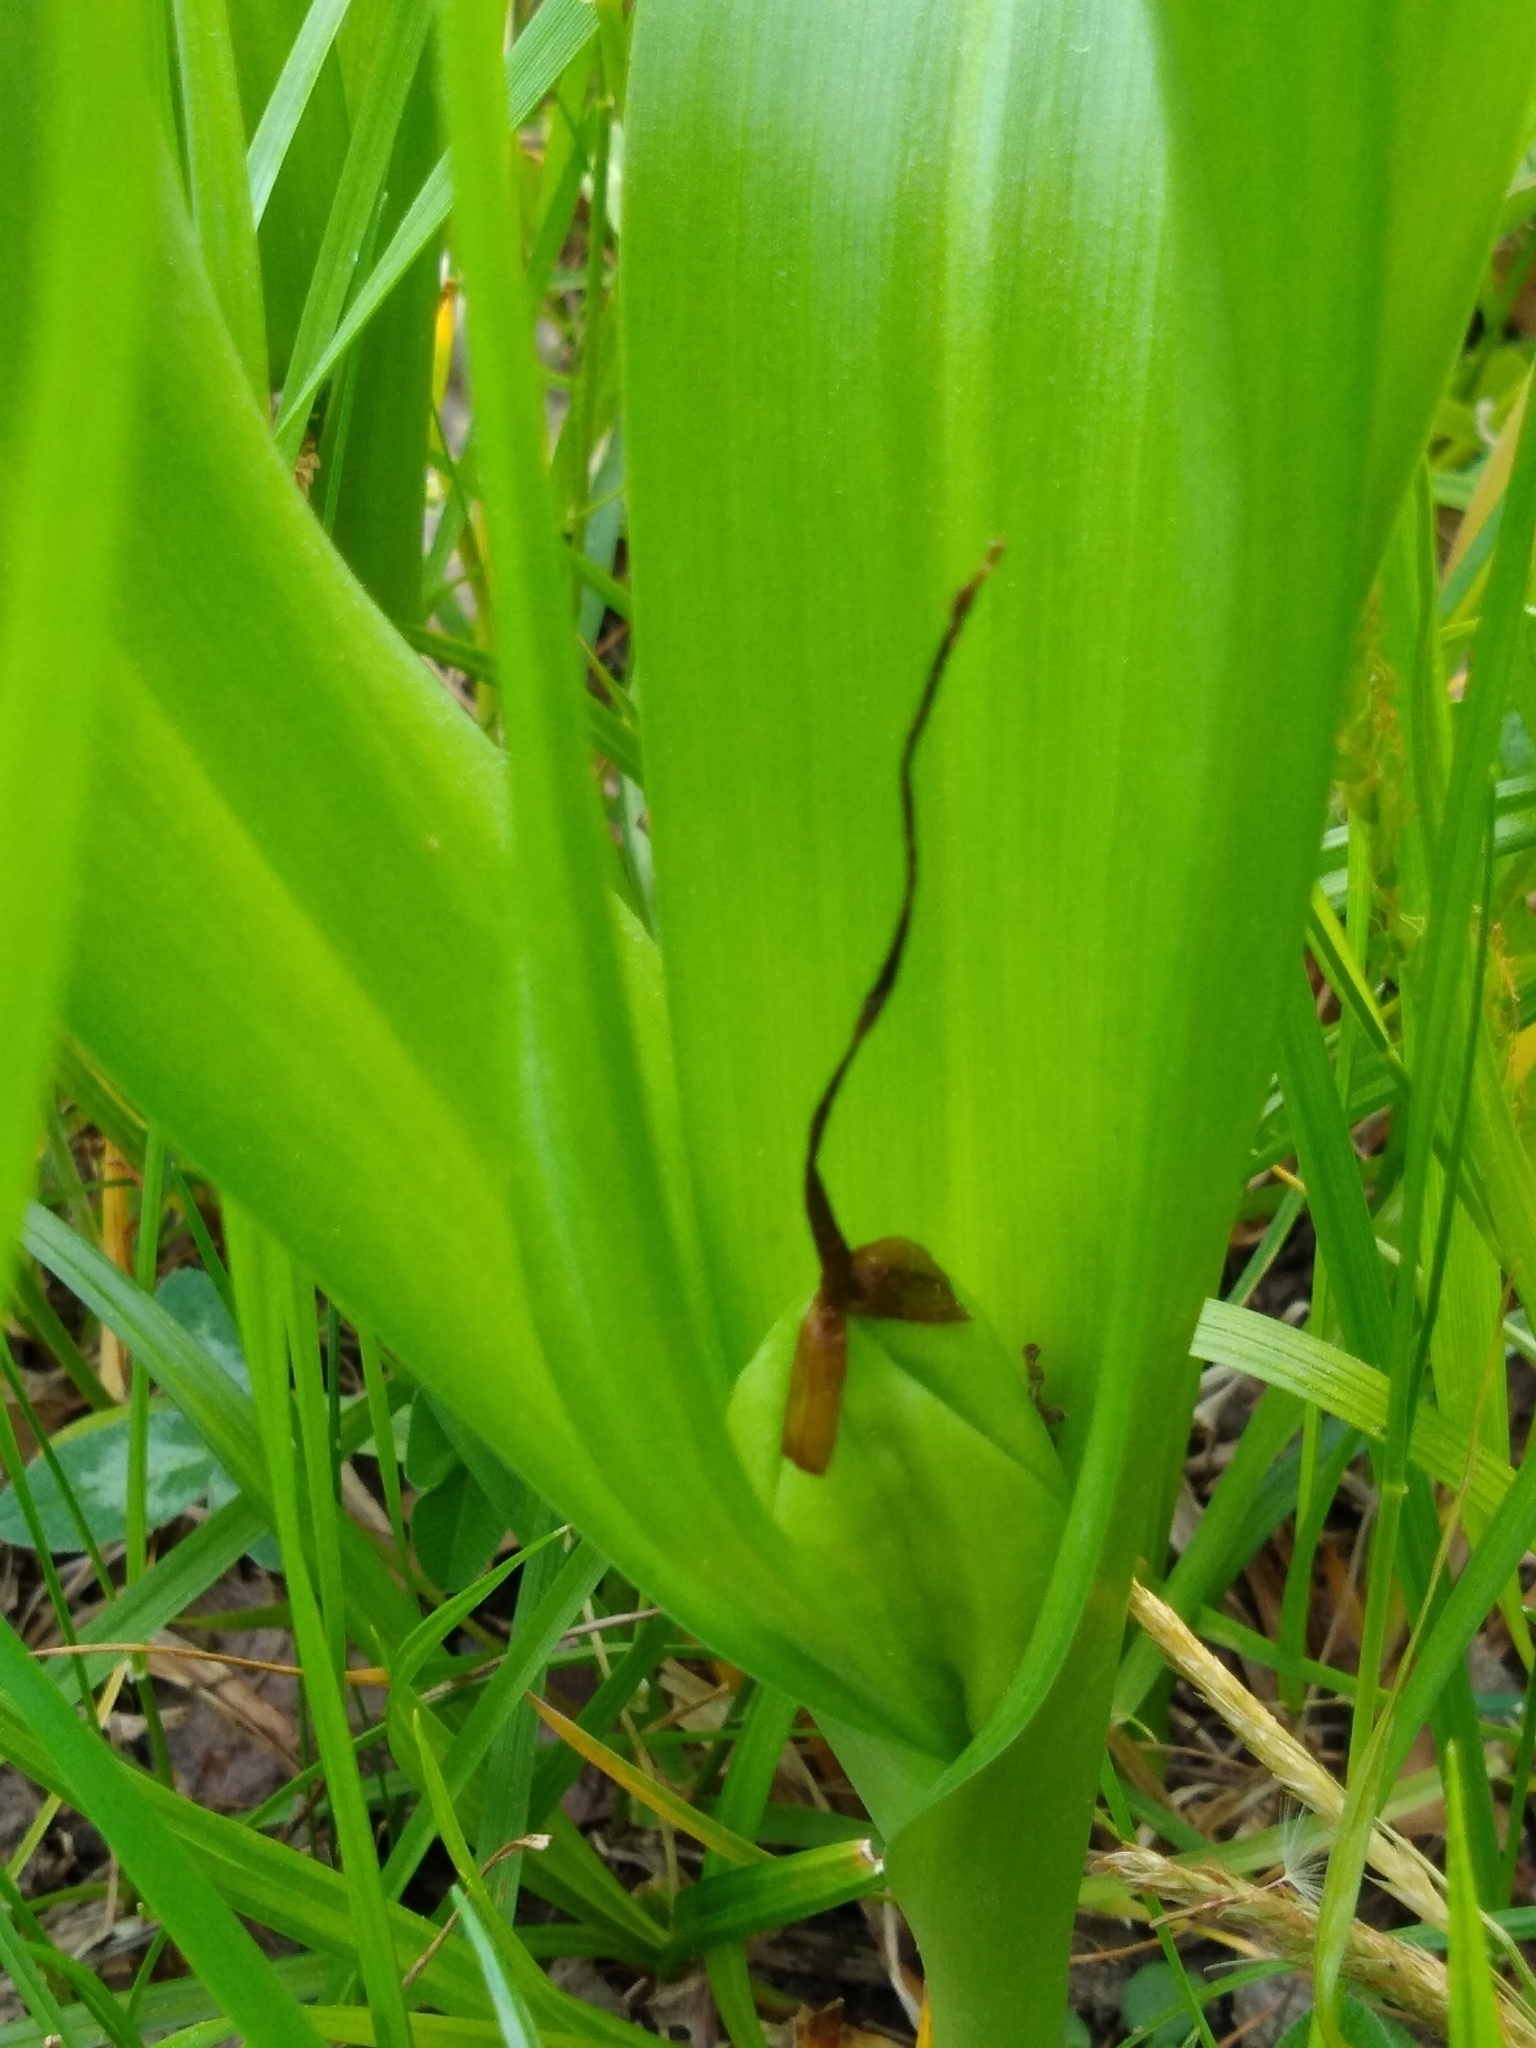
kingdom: Plantae
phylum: Tracheophyta
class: Liliopsida
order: Liliales
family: Colchicaceae
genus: Colchicum
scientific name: Colchicum autumnale
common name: Autumn crocus
